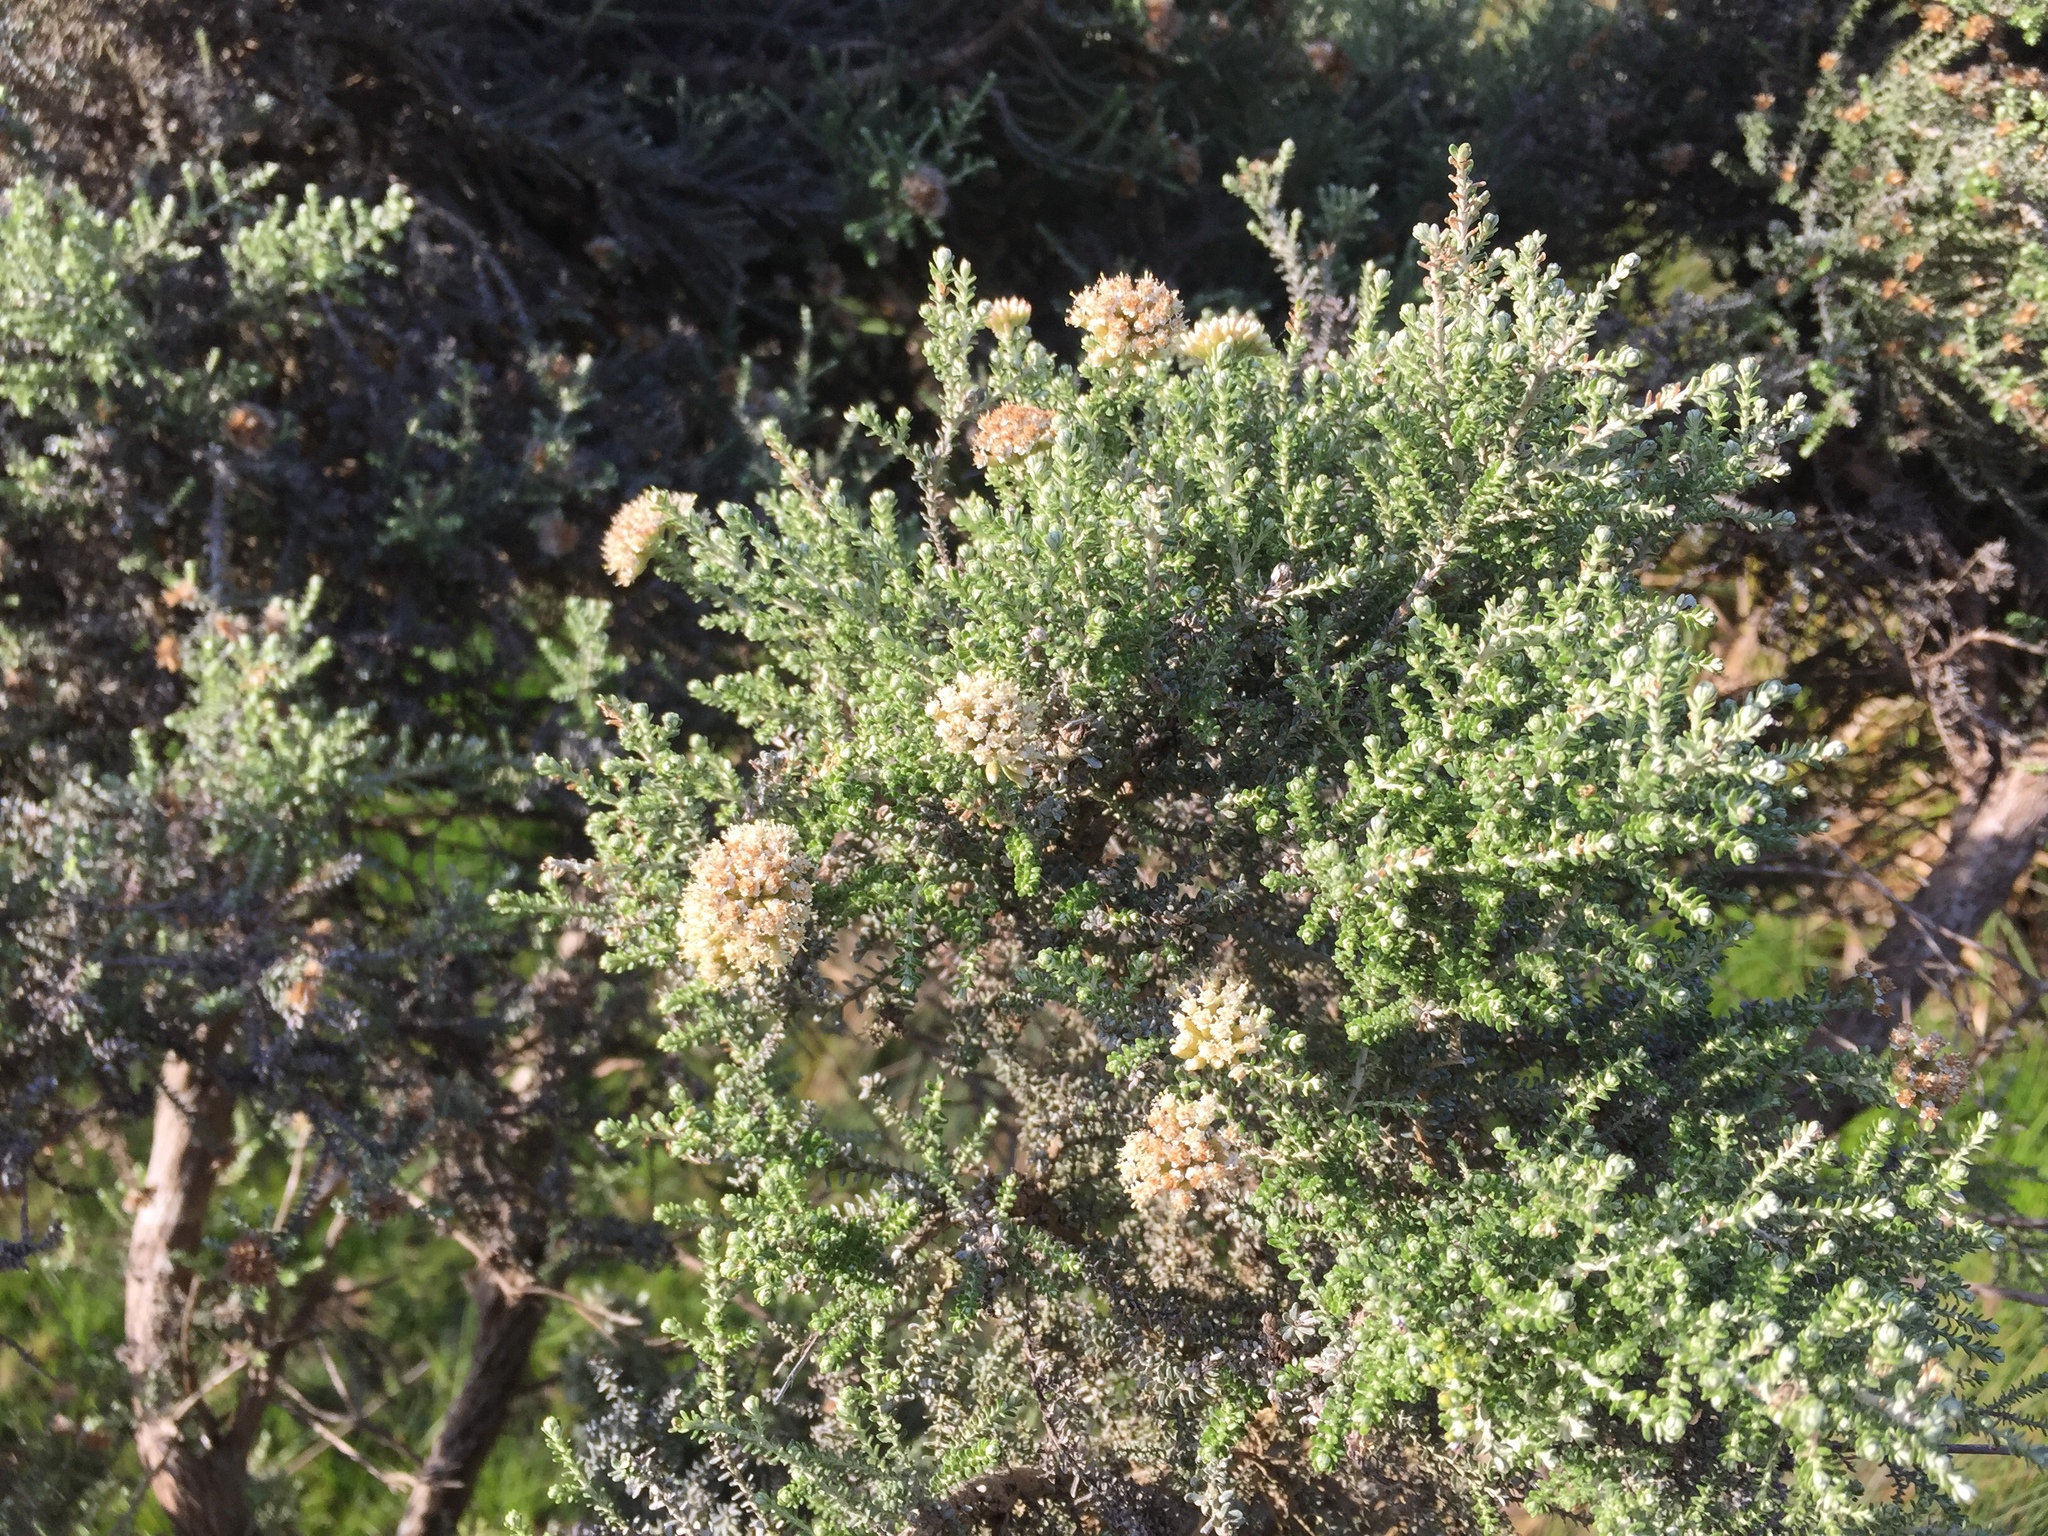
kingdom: Plantae
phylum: Tracheophyta
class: Magnoliopsida
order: Asterales
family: Asteraceae
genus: Ozothamnus
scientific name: Ozothamnus leptophyllus
